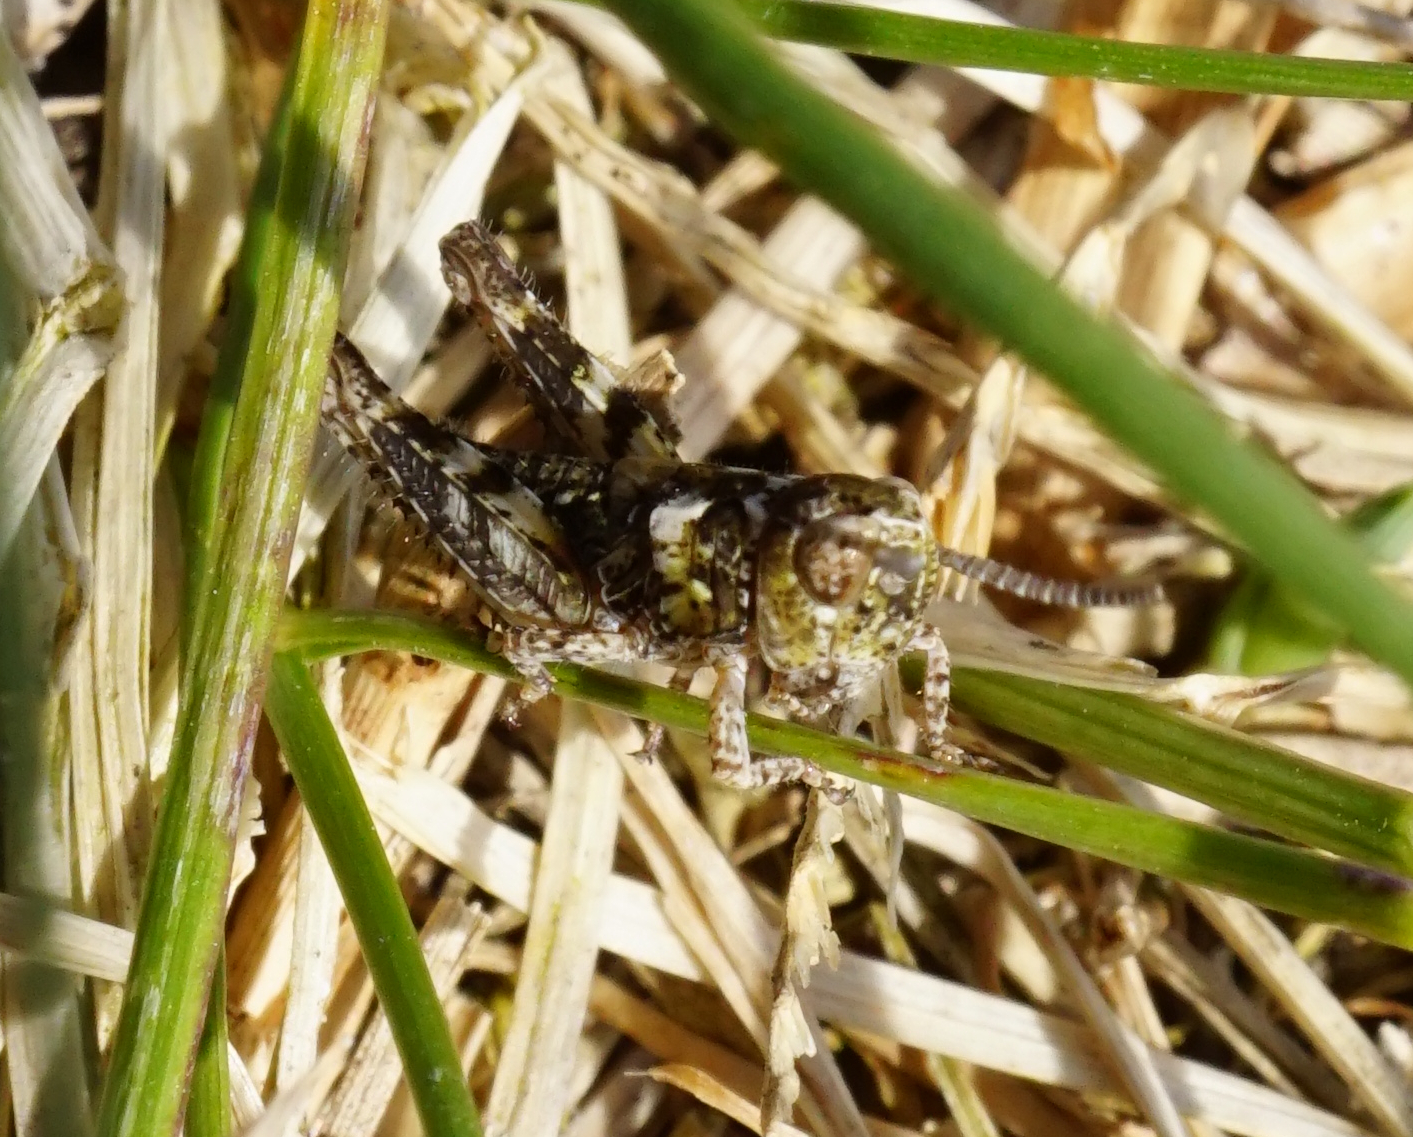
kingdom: Animalia
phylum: Arthropoda
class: Insecta
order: Orthoptera
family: Acrididae
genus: Myrmeleotettix
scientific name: Myrmeleotettix maculatus
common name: Mottled grasshopper
